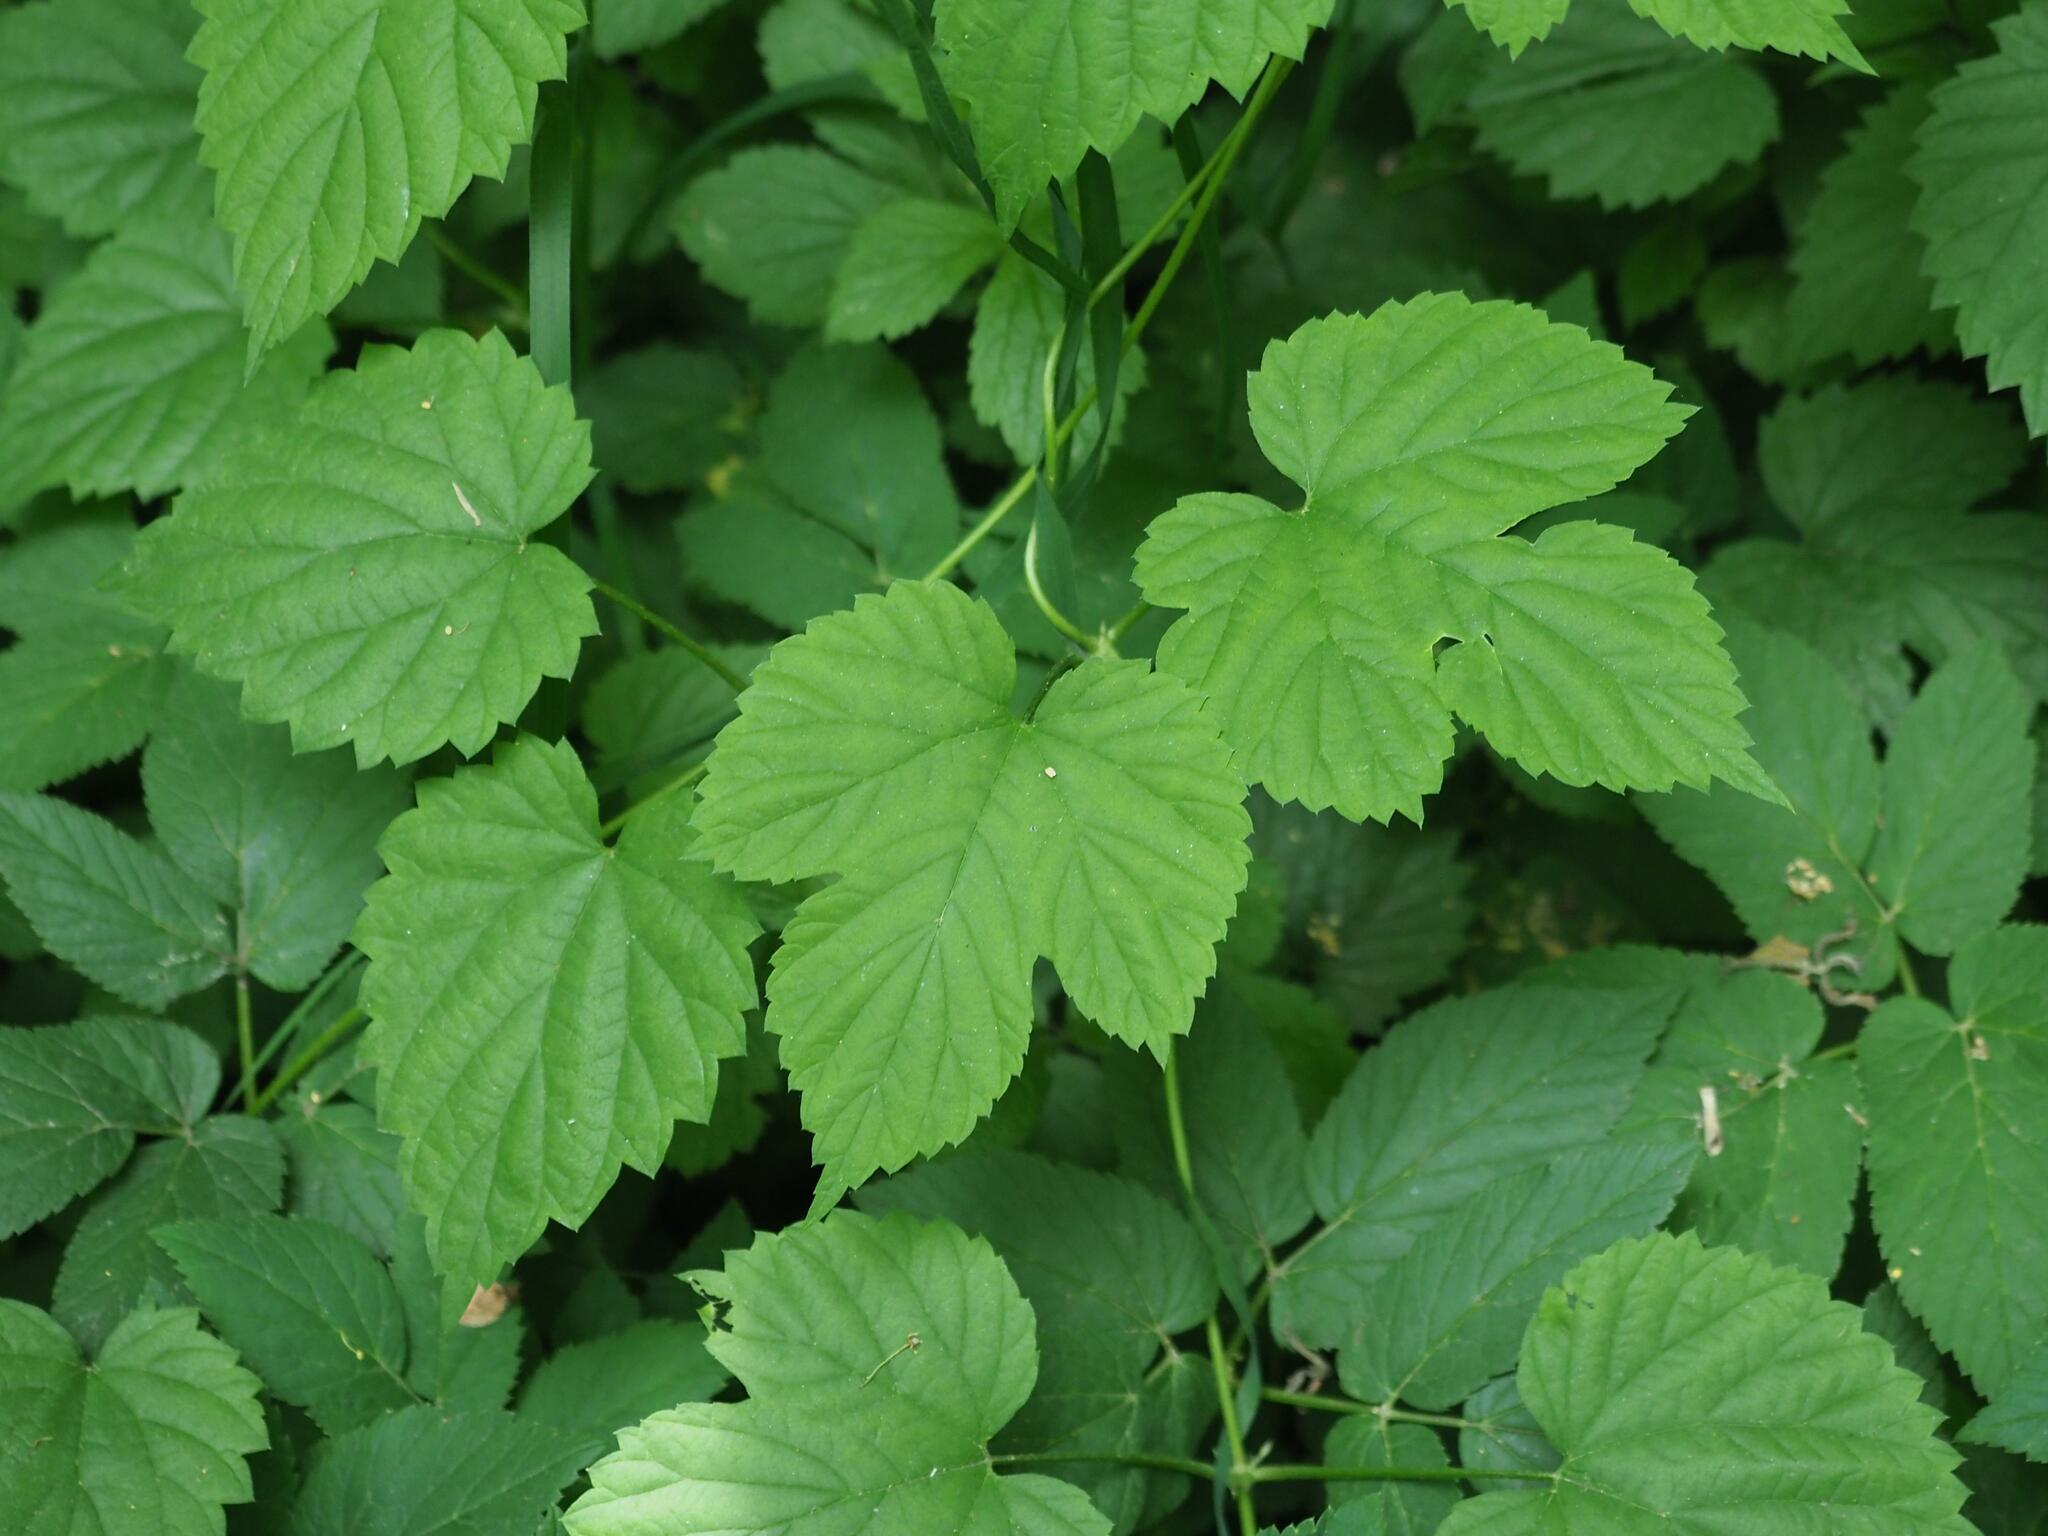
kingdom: Plantae
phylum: Tracheophyta
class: Magnoliopsida
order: Rosales
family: Cannabaceae
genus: Humulus
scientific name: Humulus lupulus
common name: Hop
